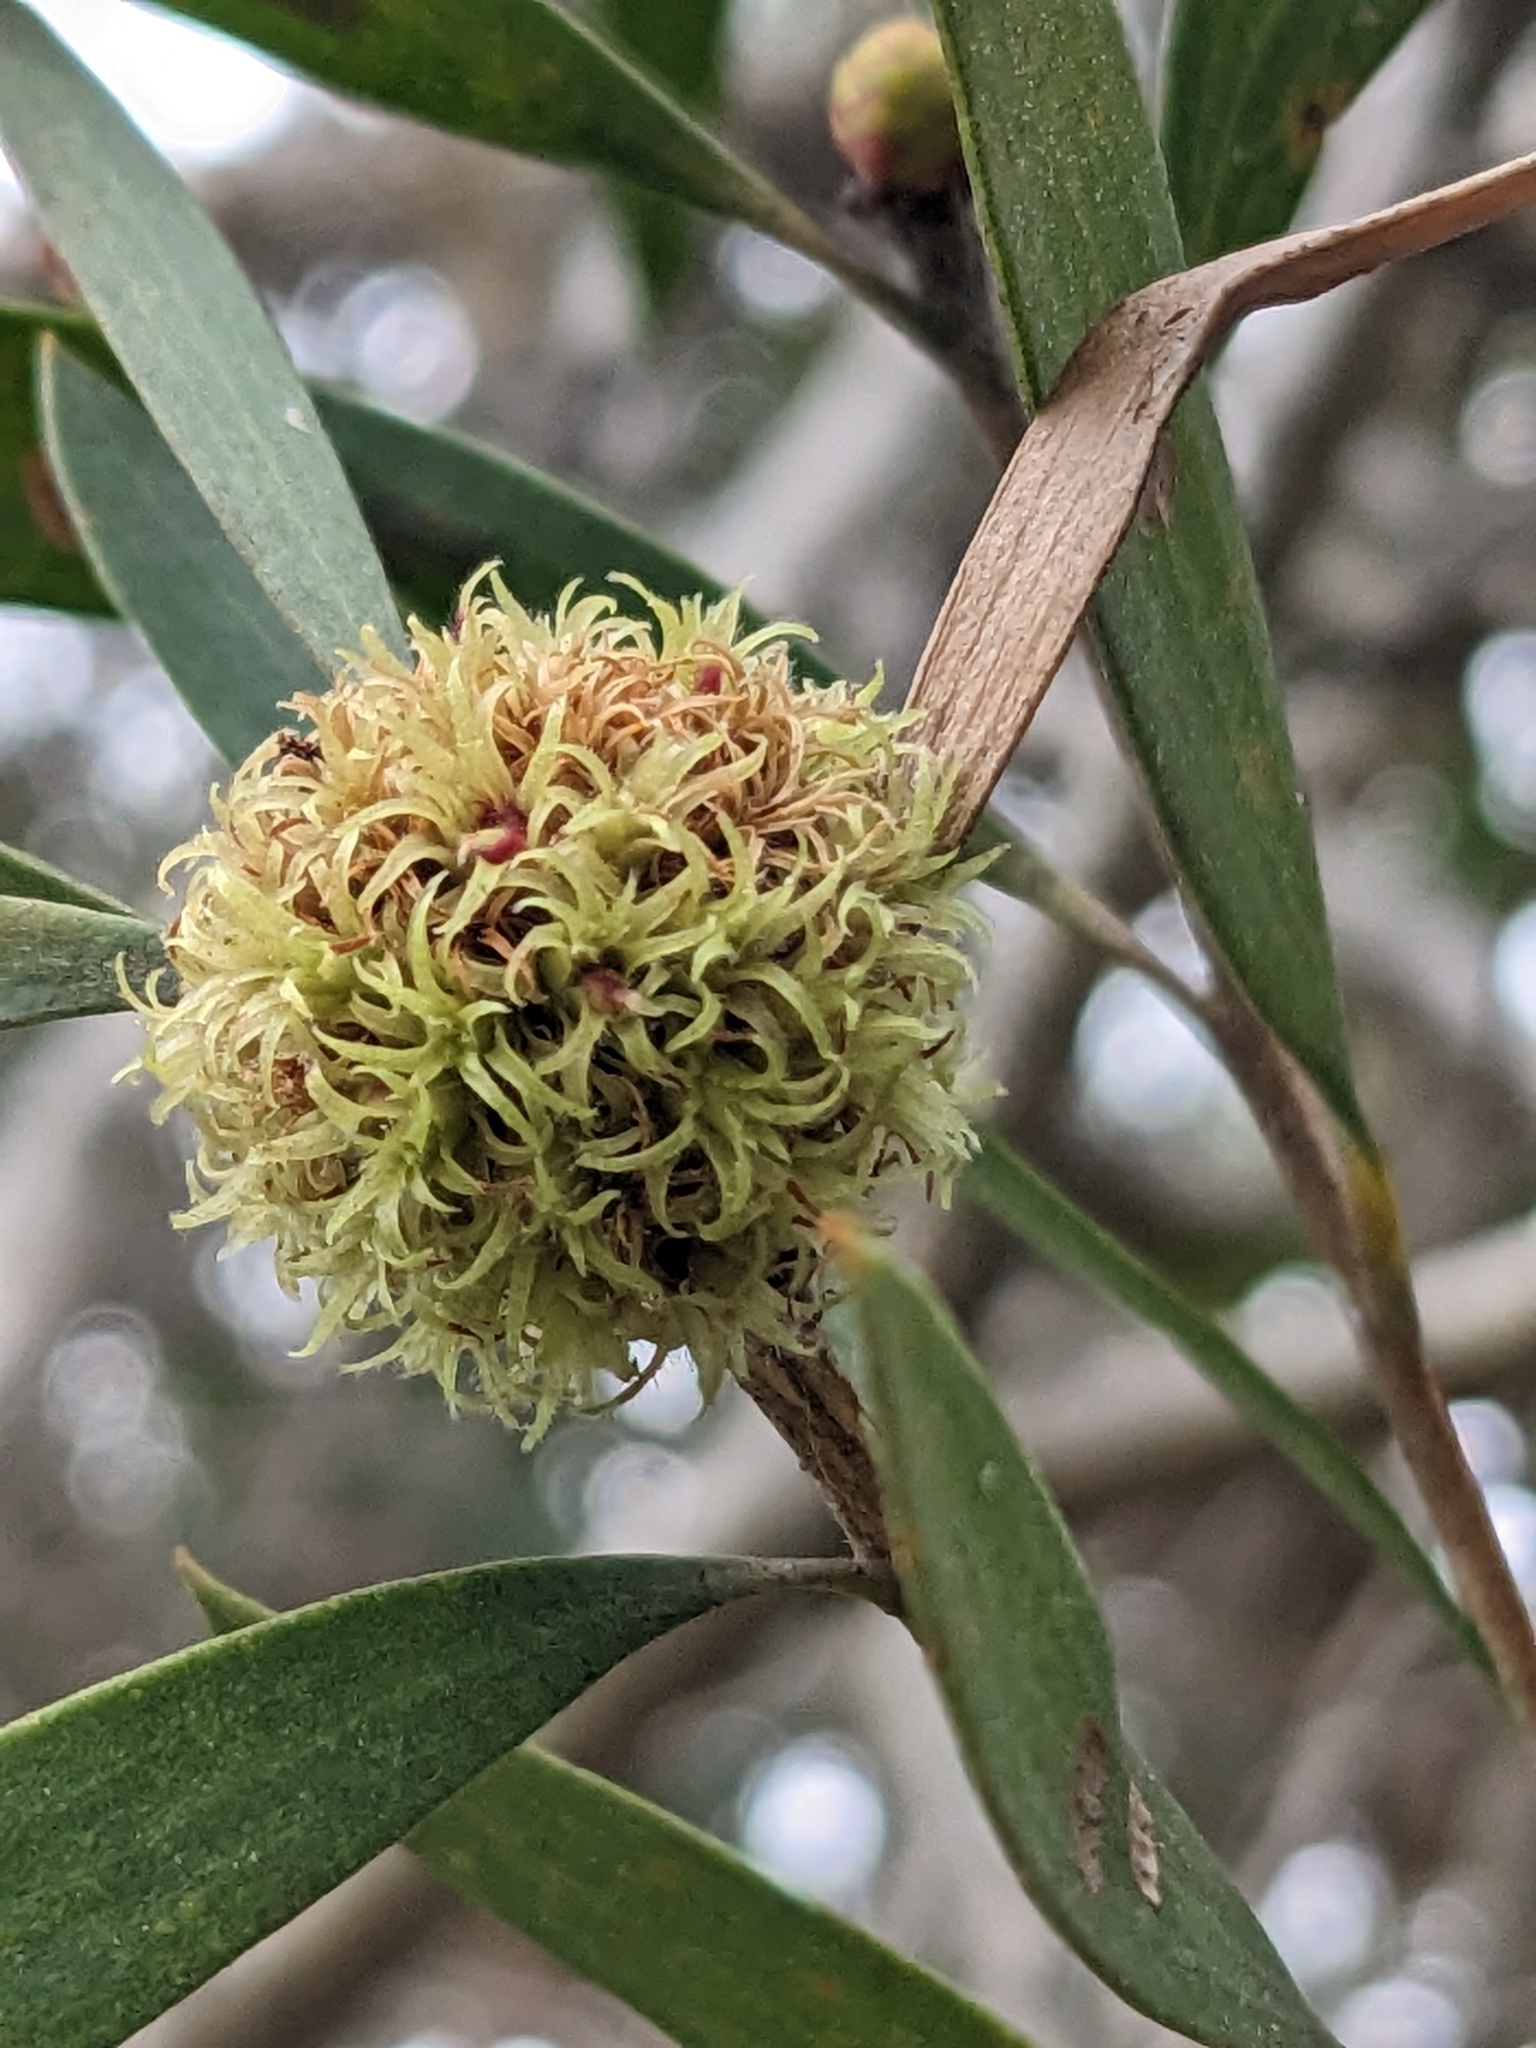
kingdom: Animalia
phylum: Arthropoda
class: Insecta
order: Hemiptera
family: Beesoniidae
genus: Beesonia
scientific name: Beesonia ferrugineus
